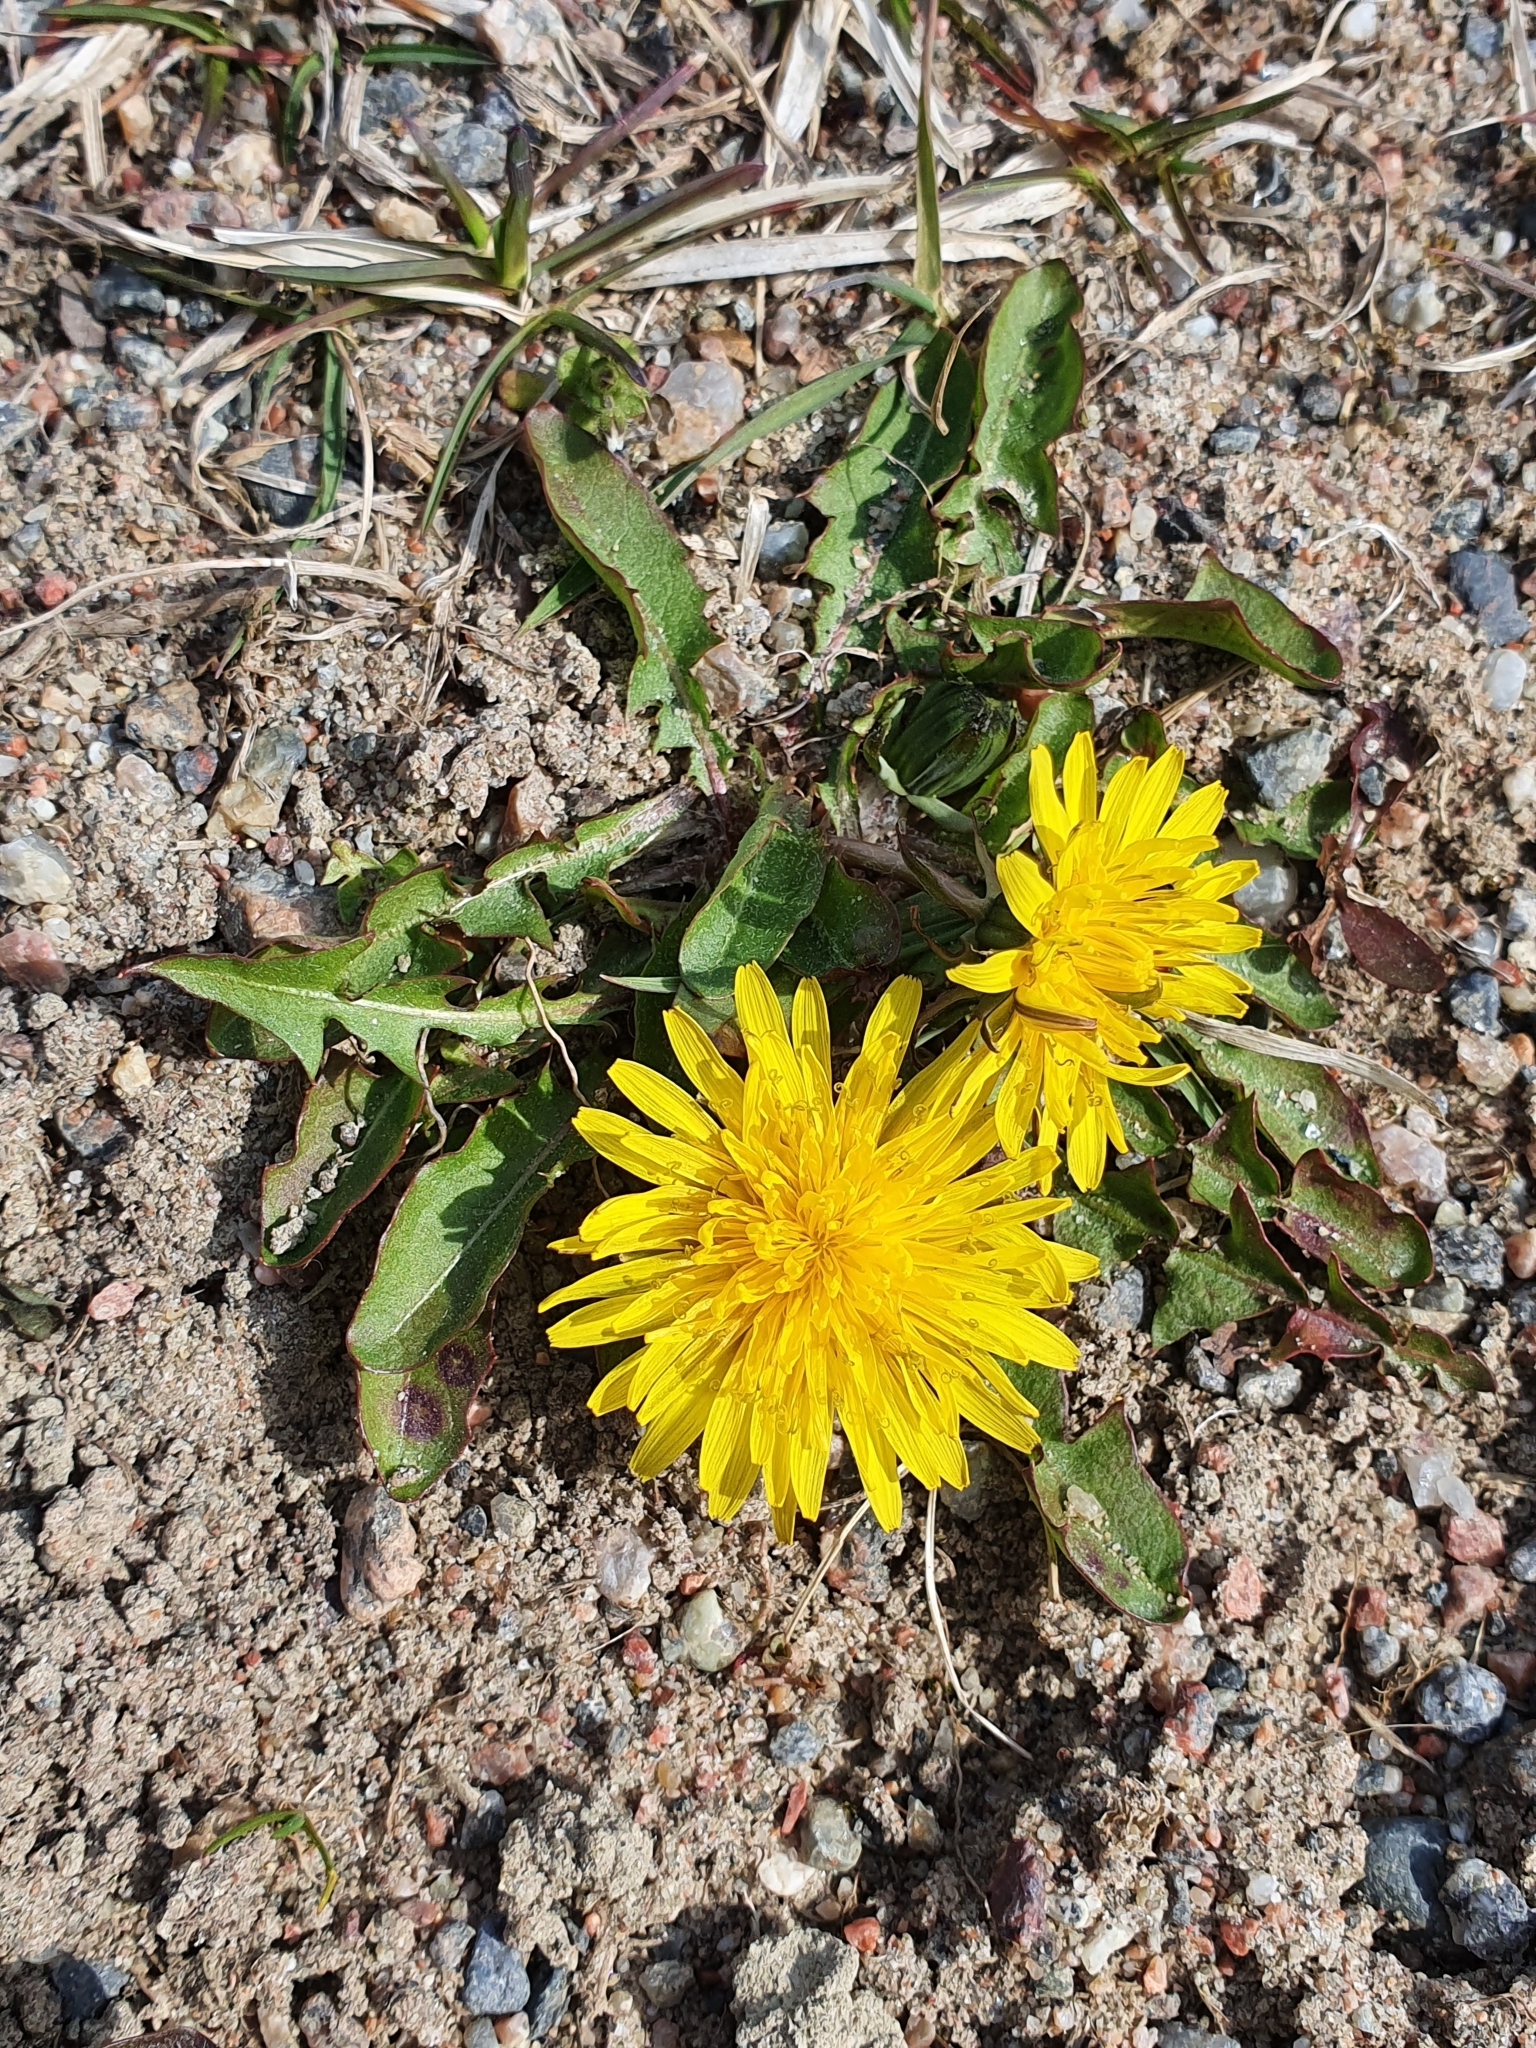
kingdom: Plantae
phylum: Tracheophyta
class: Magnoliopsida
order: Asterales
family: Asteraceae
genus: Taraxacum
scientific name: Taraxacum officinale
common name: Common dandelion
